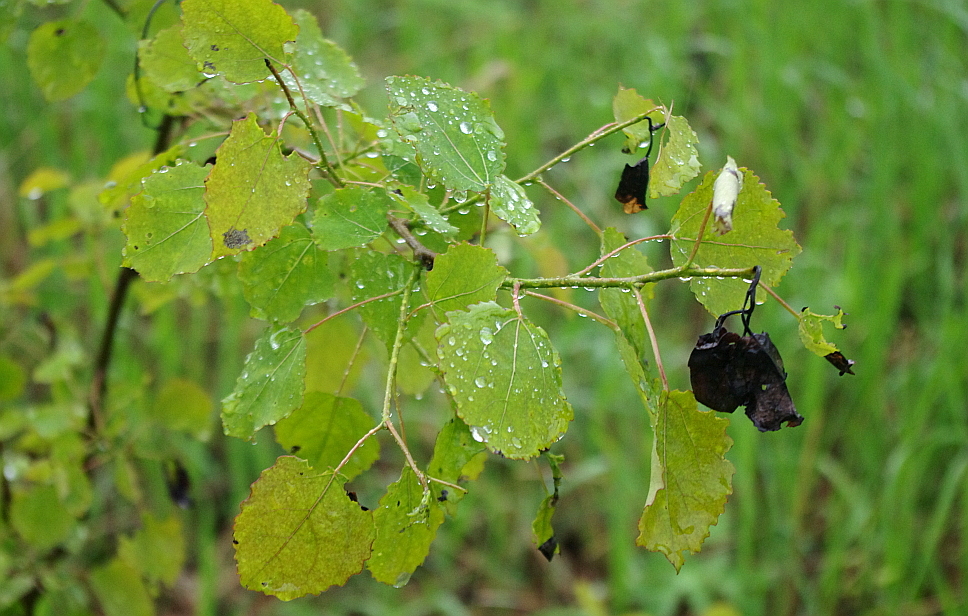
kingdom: Plantae
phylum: Tracheophyta
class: Magnoliopsida
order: Malpighiales
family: Salicaceae
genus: Populus
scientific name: Populus tremula
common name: European aspen
